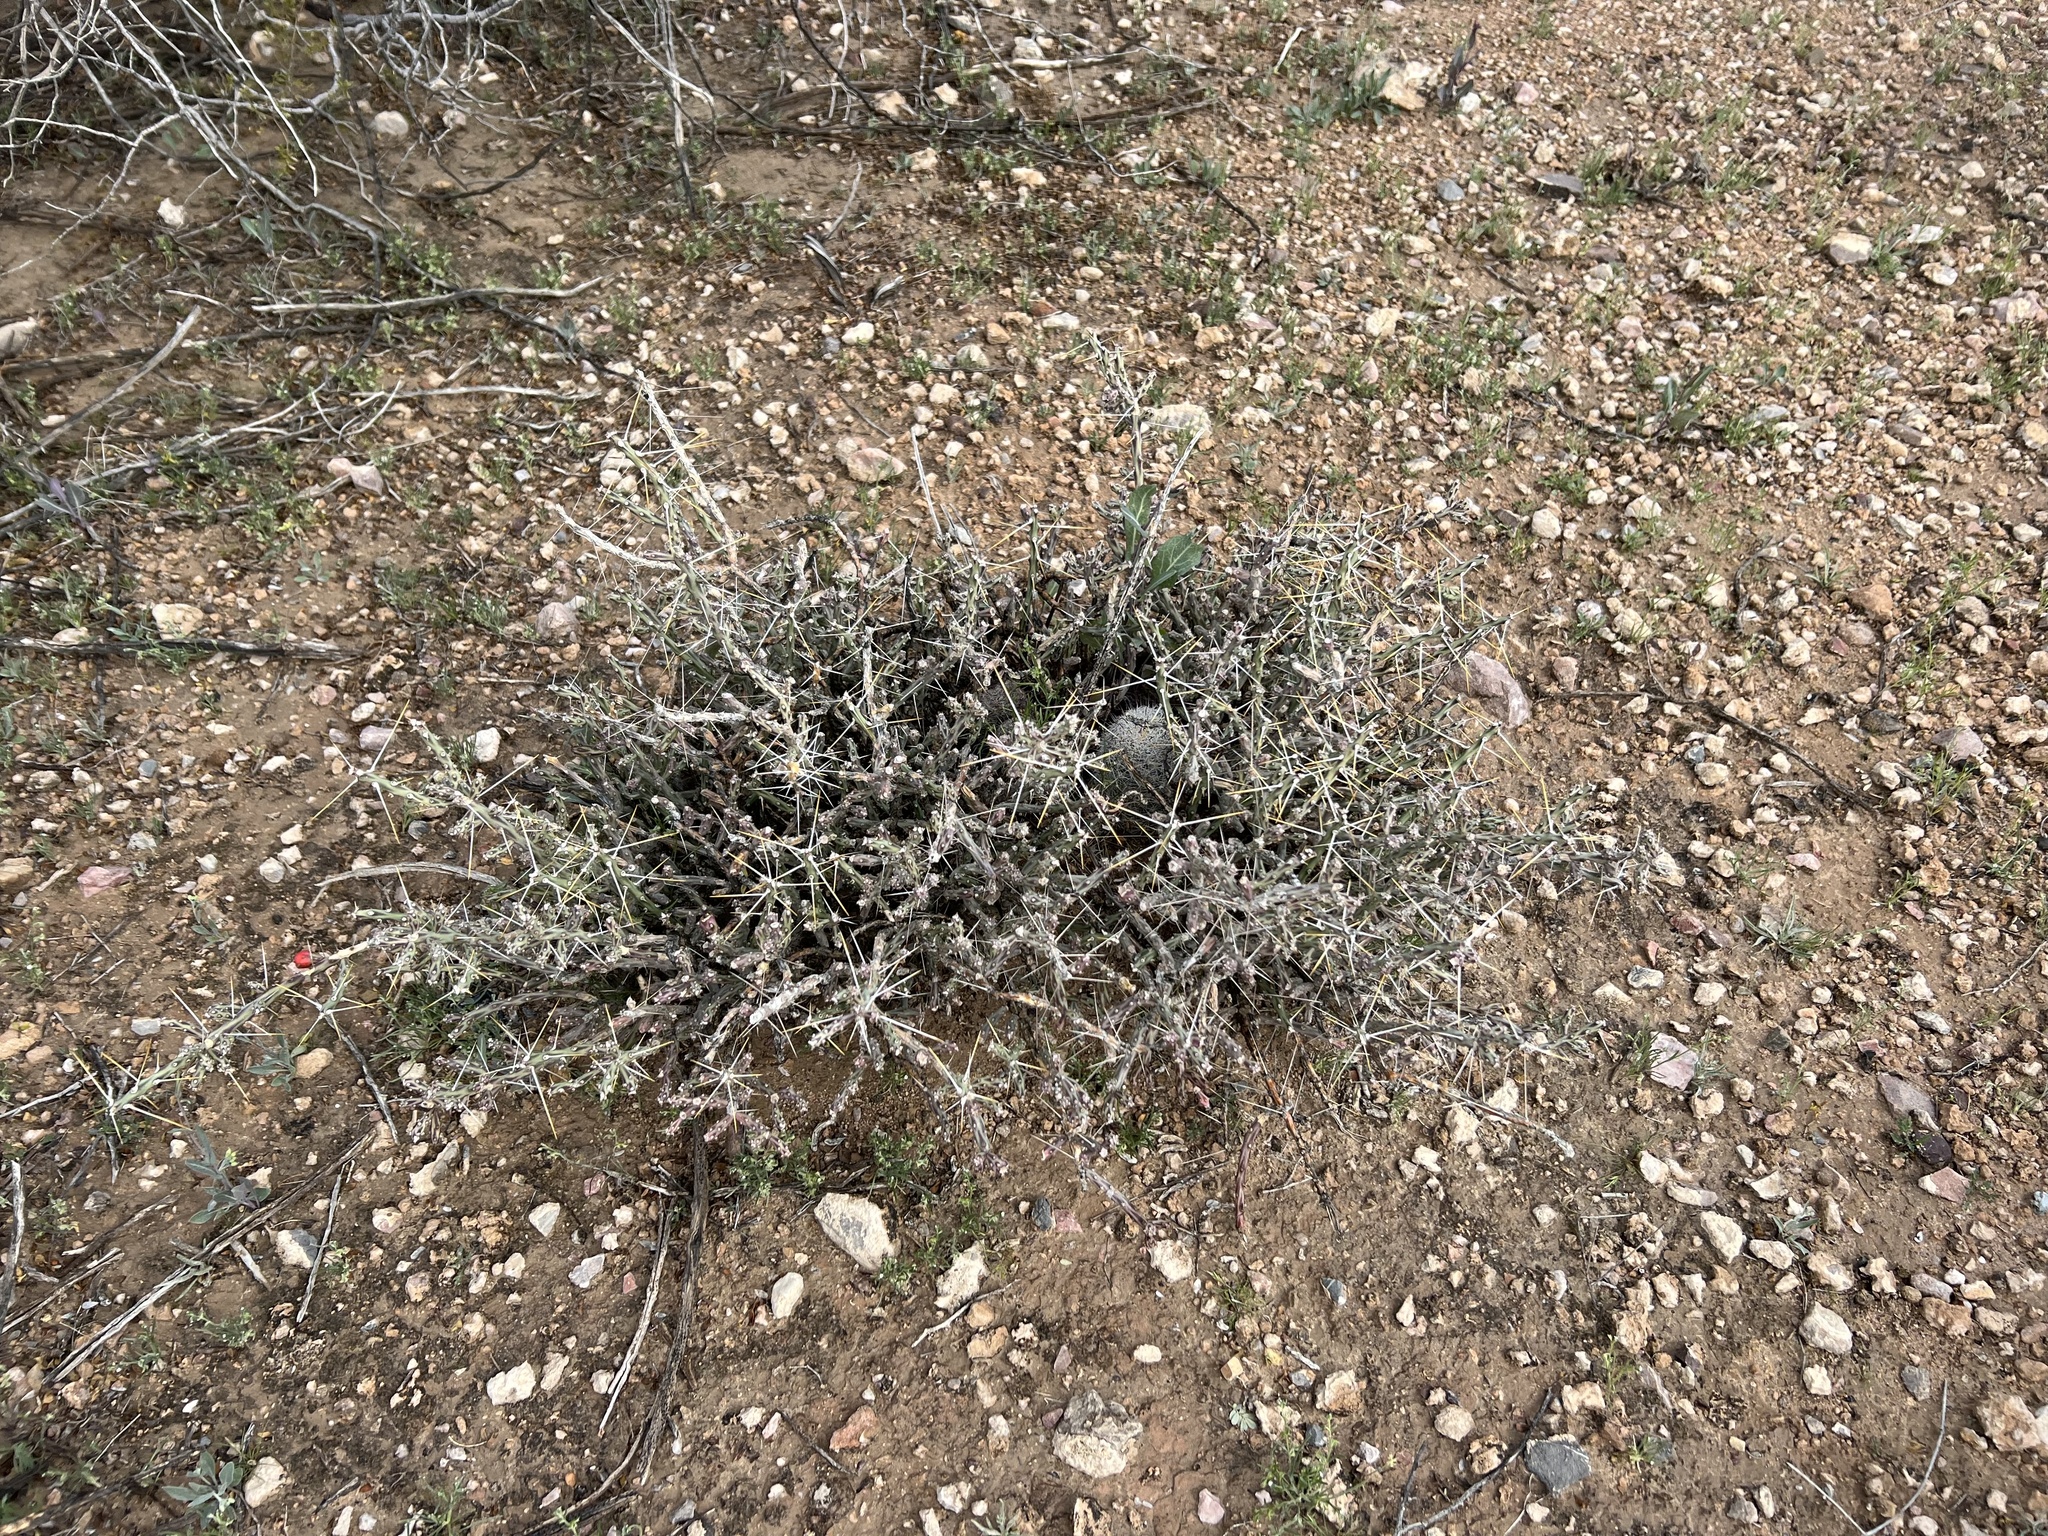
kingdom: Plantae
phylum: Tracheophyta
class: Magnoliopsida
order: Caryophyllales
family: Cactaceae
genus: Cylindropuntia
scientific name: Cylindropuntia leptocaulis
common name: Christmas cactus
